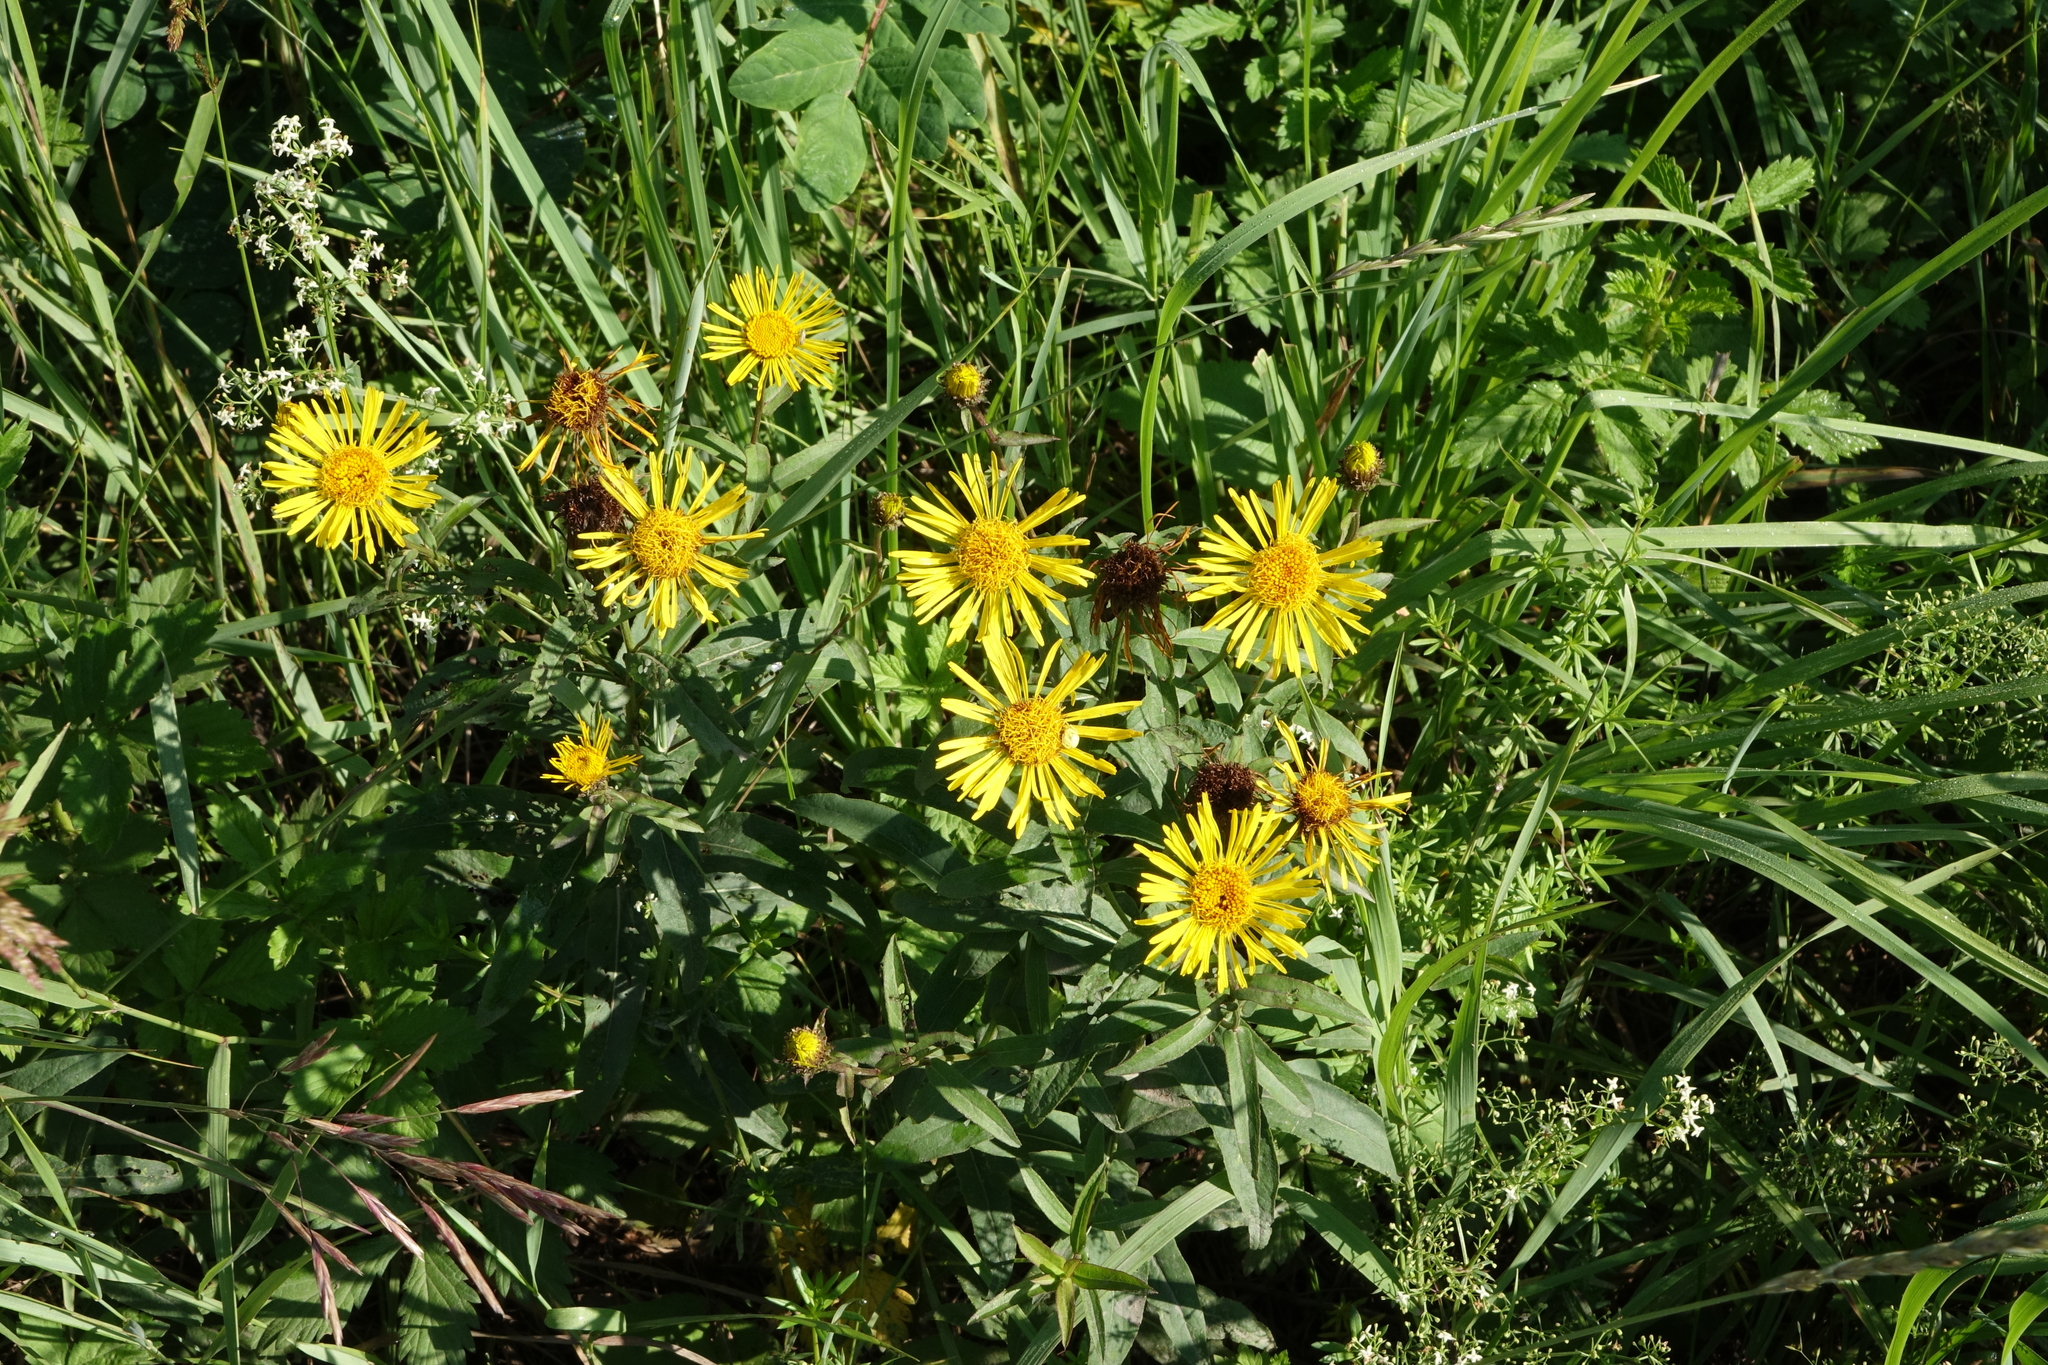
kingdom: Plantae
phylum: Tracheophyta
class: Magnoliopsida
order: Asterales
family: Asteraceae
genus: Pentanema
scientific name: Pentanema salicinum
